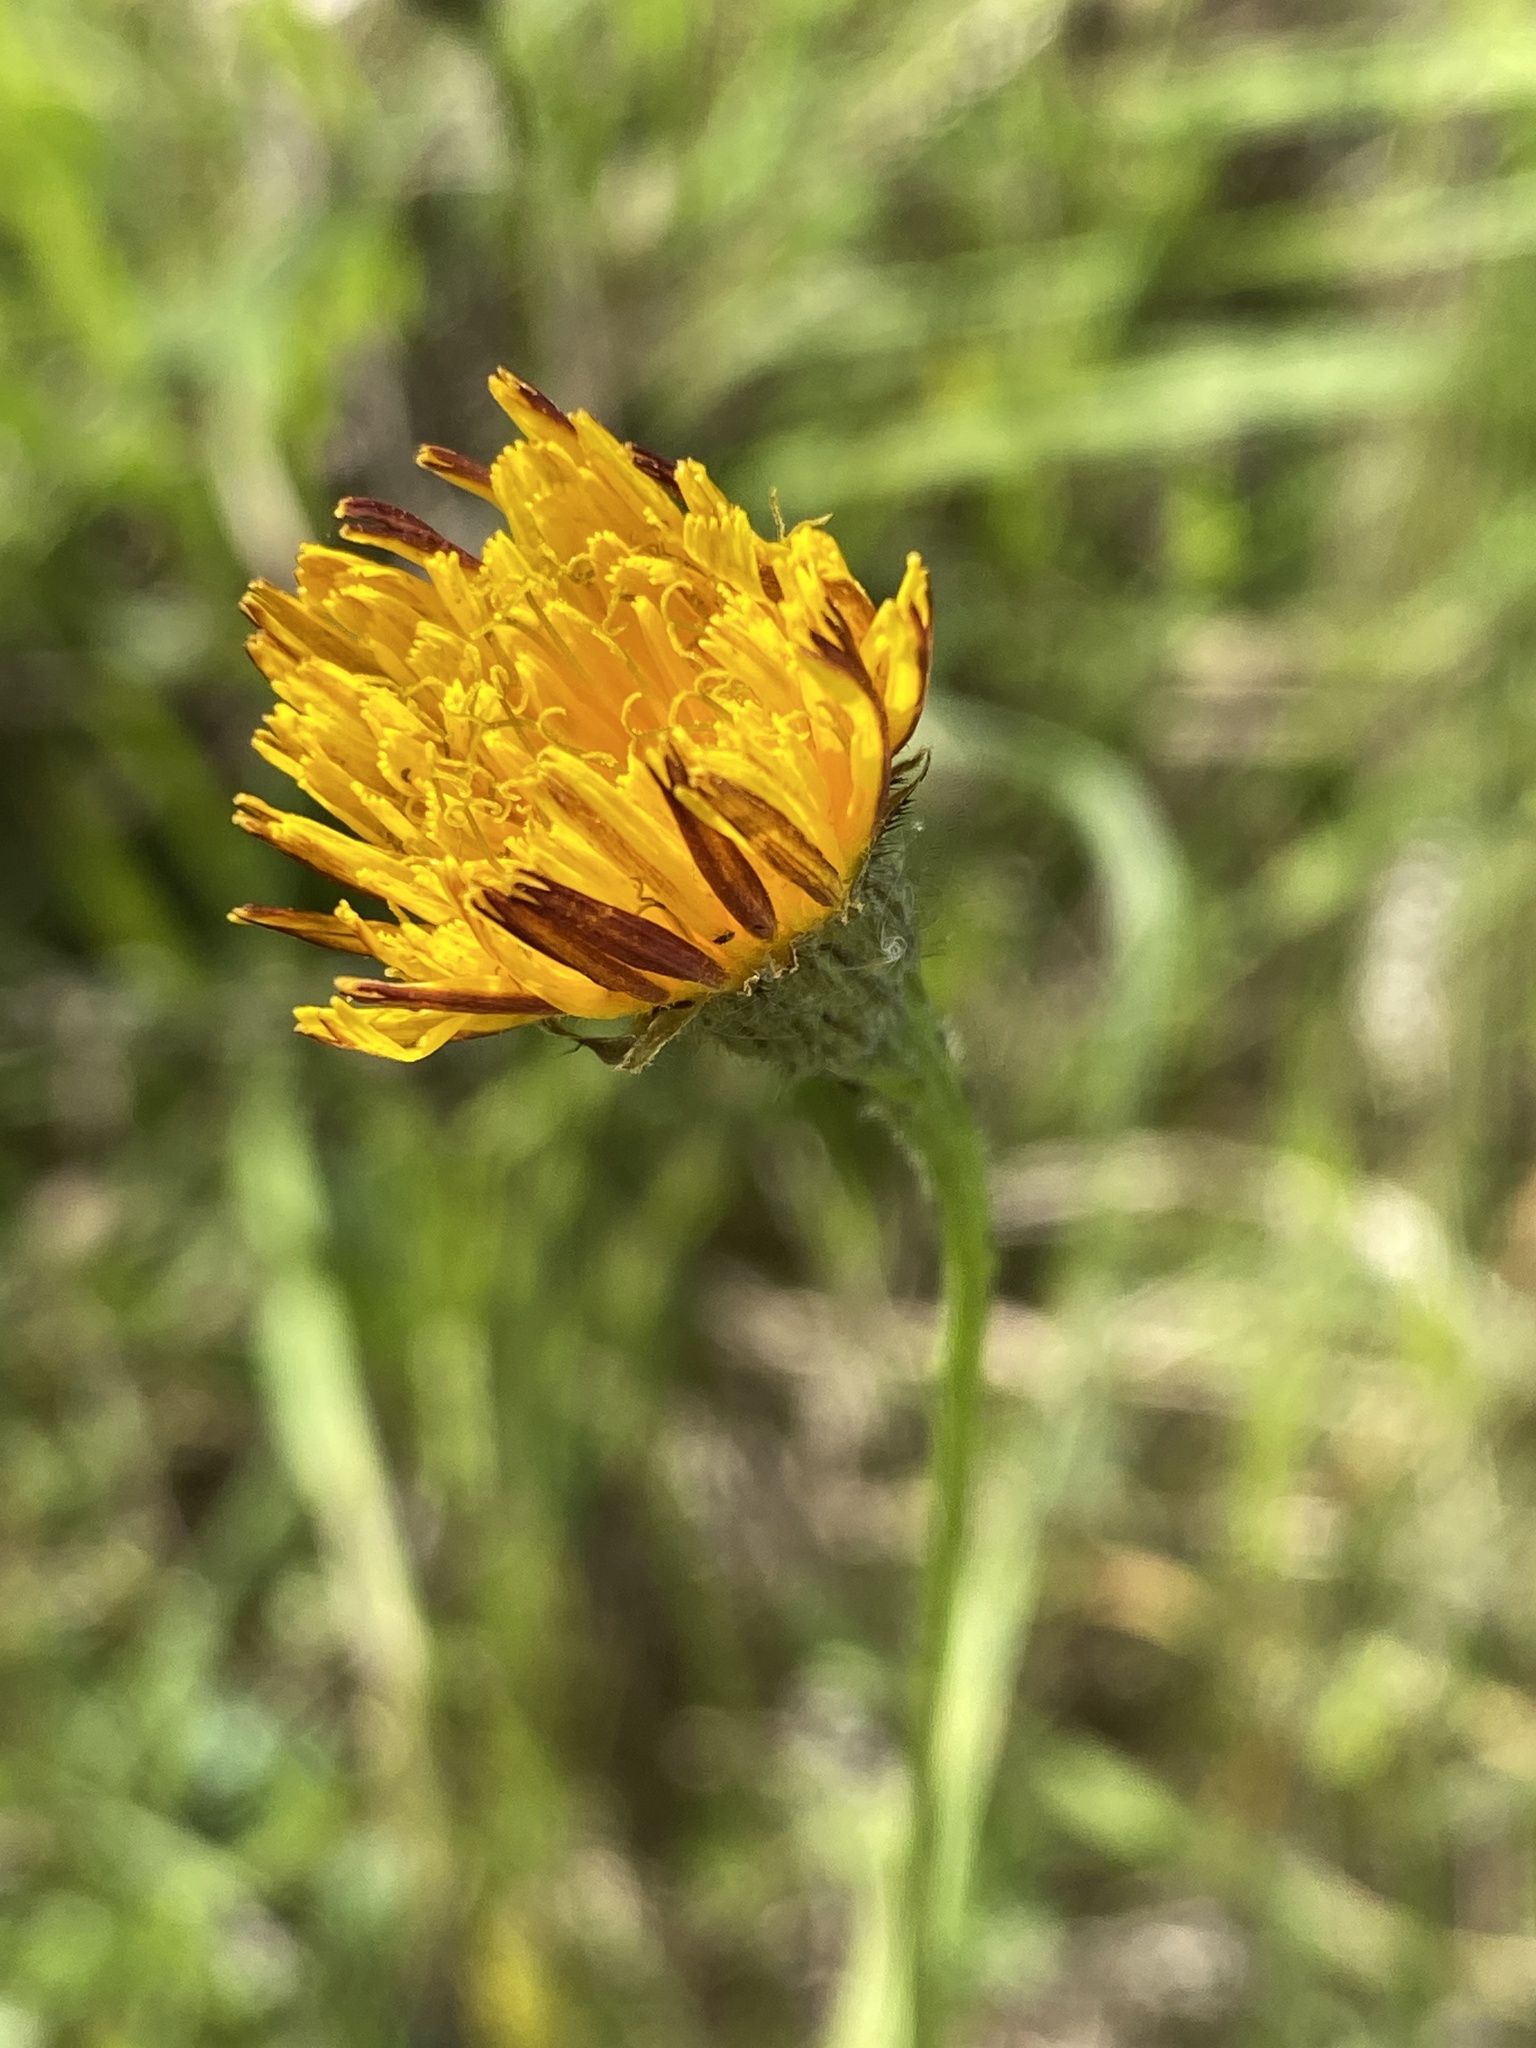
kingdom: Plantae
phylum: Tracheophyta
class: Magnoliopsida
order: Asterales
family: Asteraceae
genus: Scorzoneroides
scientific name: Scorzoneroides autumnalis
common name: Autumn hawkbit
